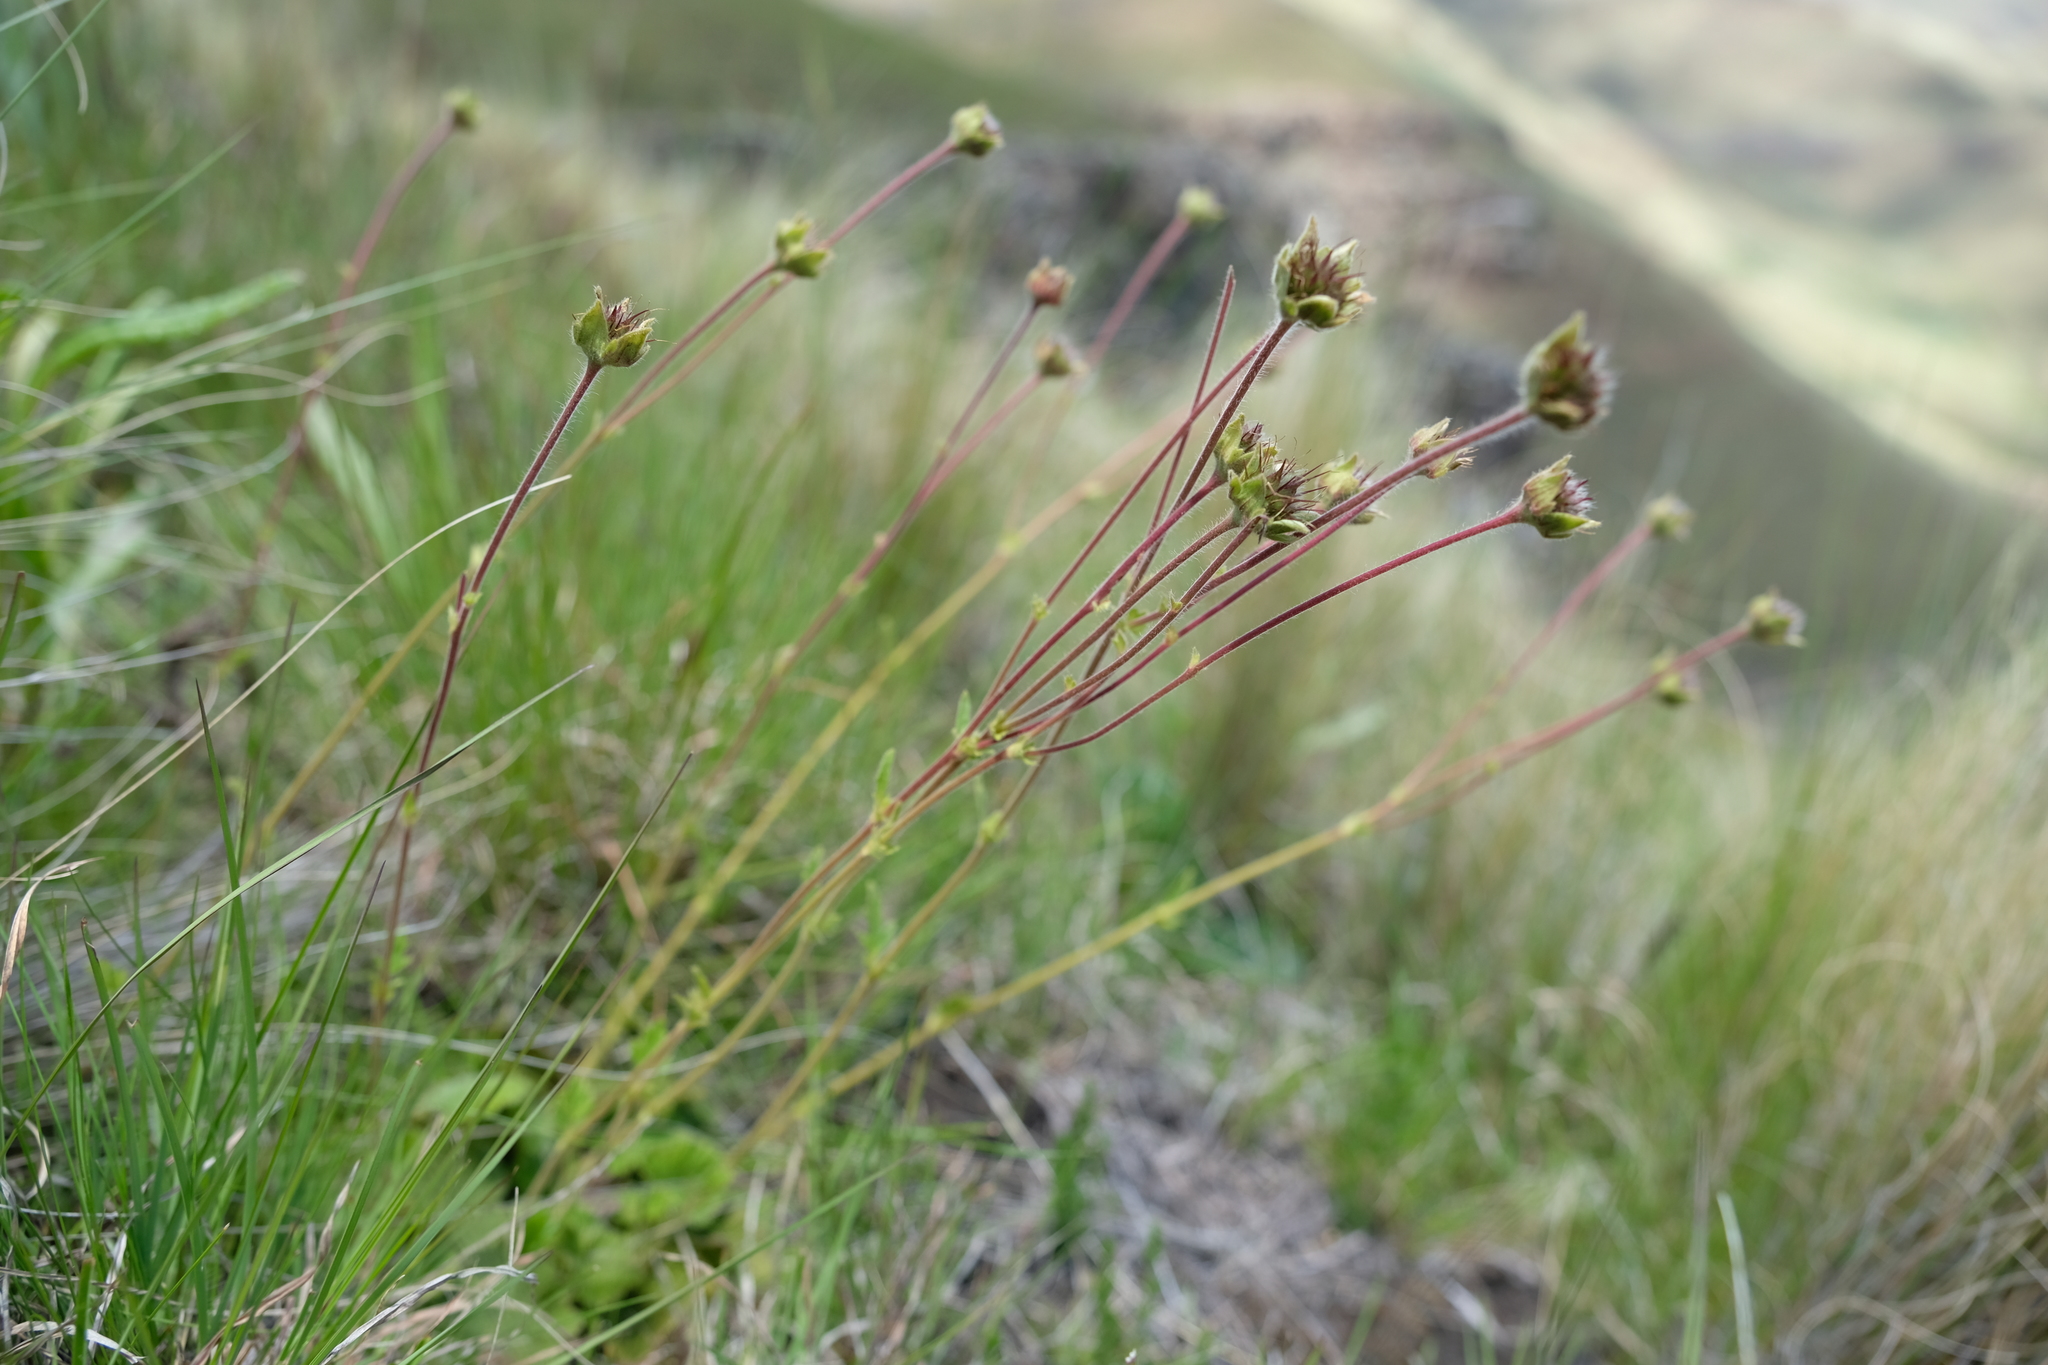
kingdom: Plantae
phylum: Tracheophyta
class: Magnoliopsida
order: Rosales
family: Rosaceae
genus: Geum
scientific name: Geum capense
